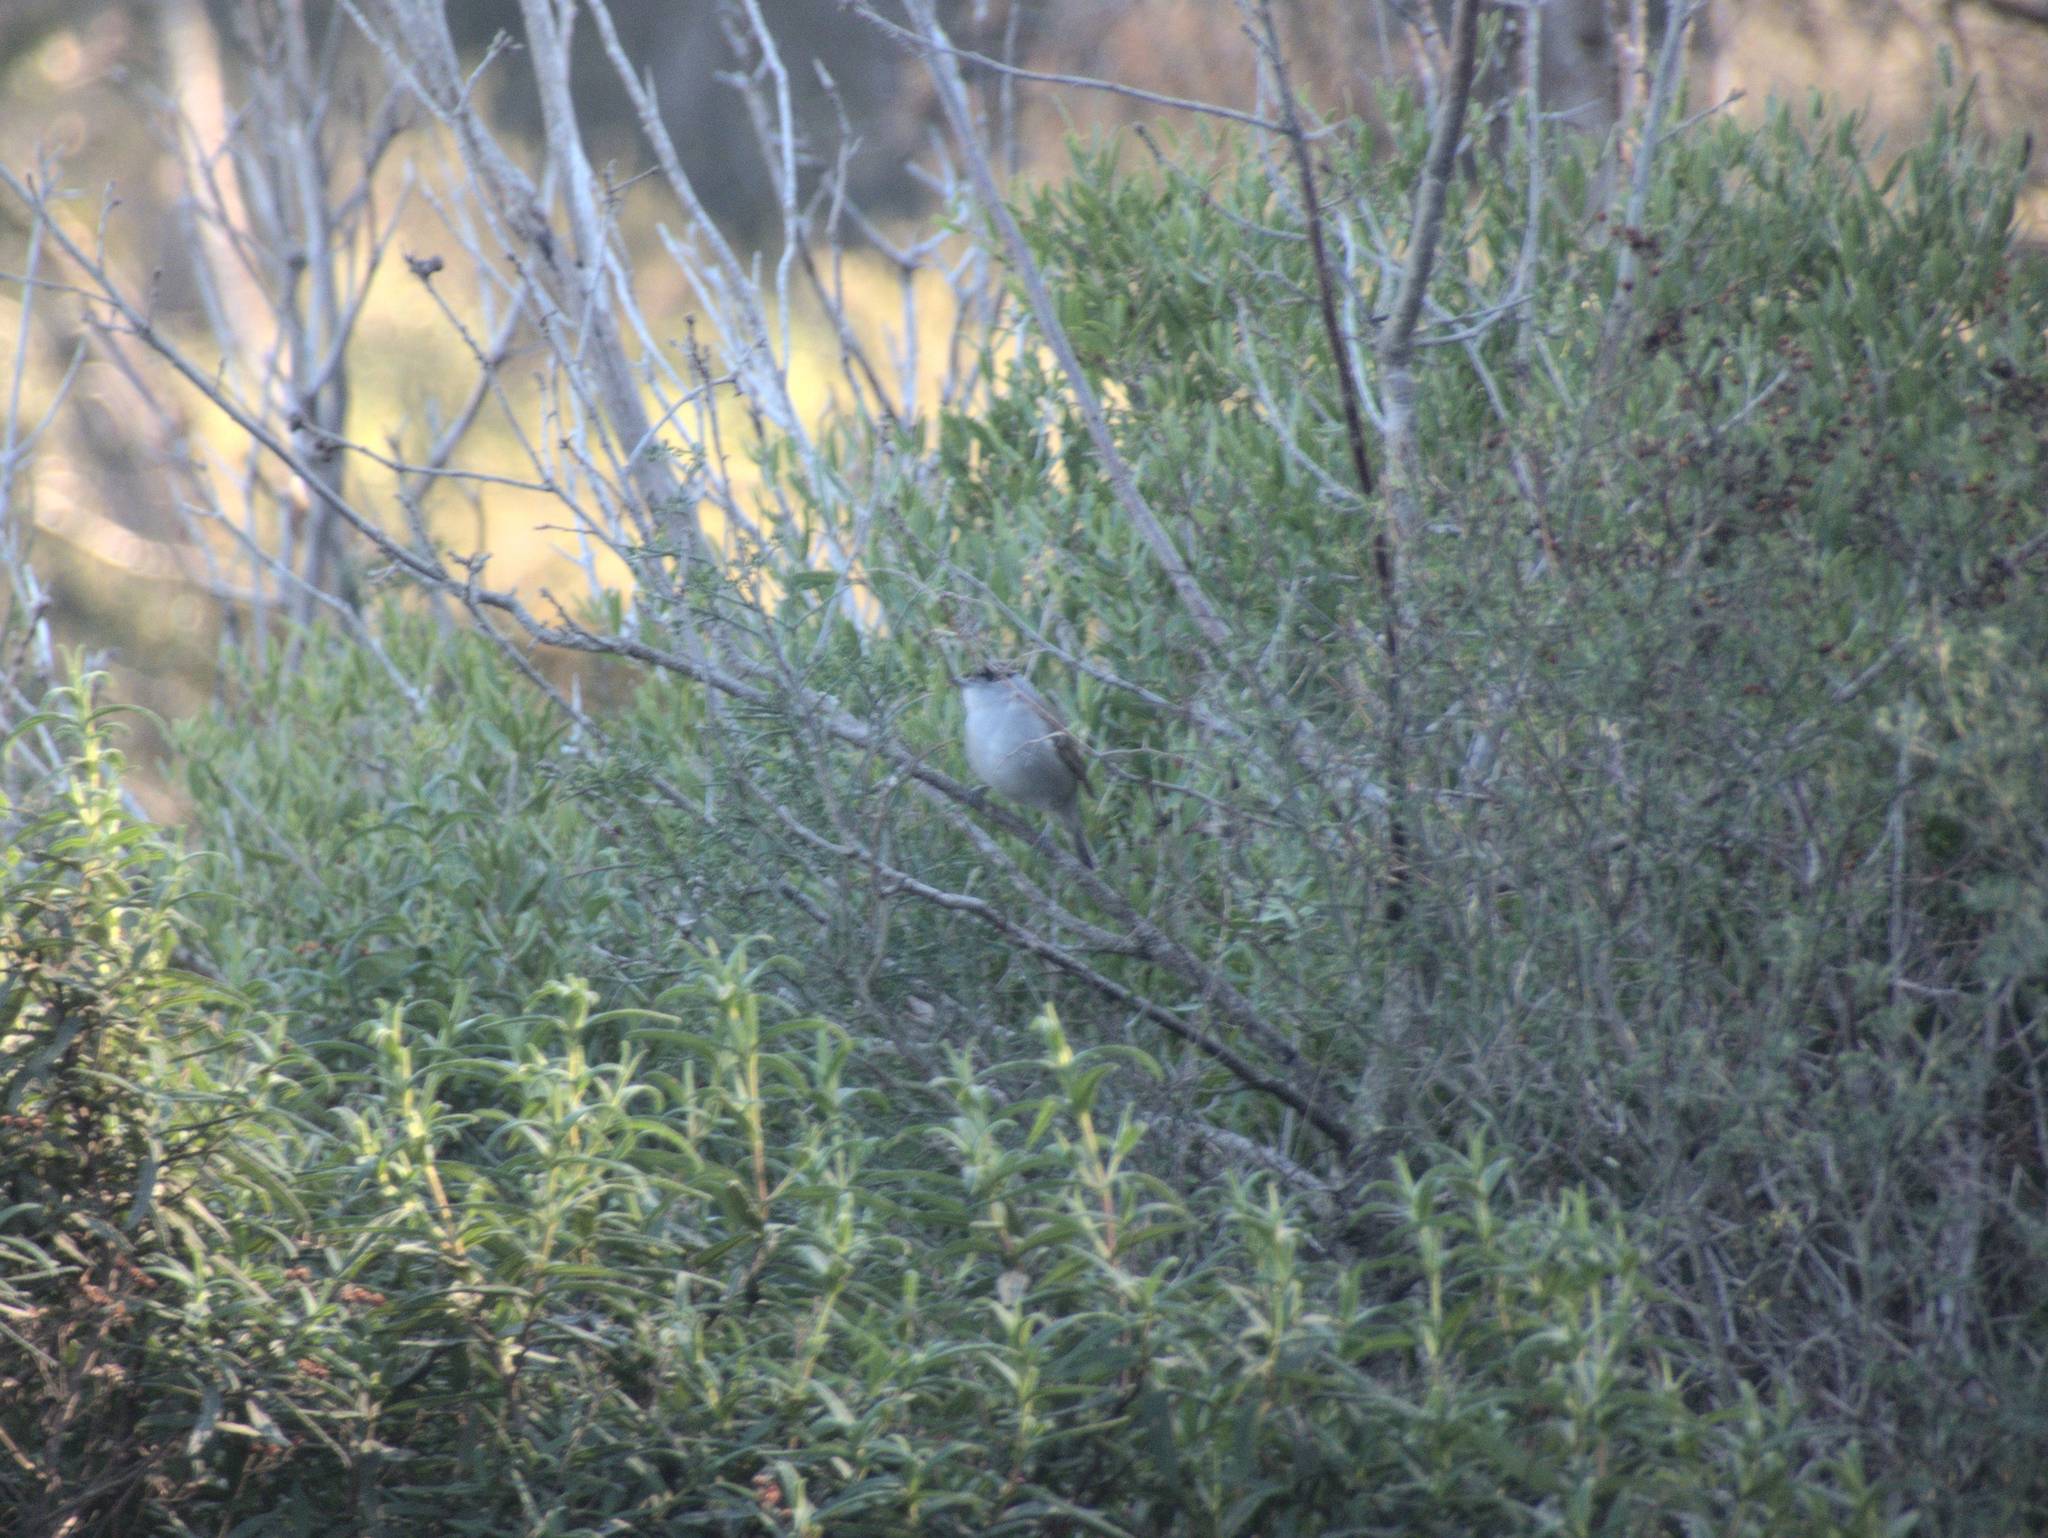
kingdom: Animalia
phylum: Chordata
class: Aves
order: Passeriformes
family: Sylviidae
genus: Sylvia
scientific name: Sylvia atricapilla
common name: Eurasian blackcap
